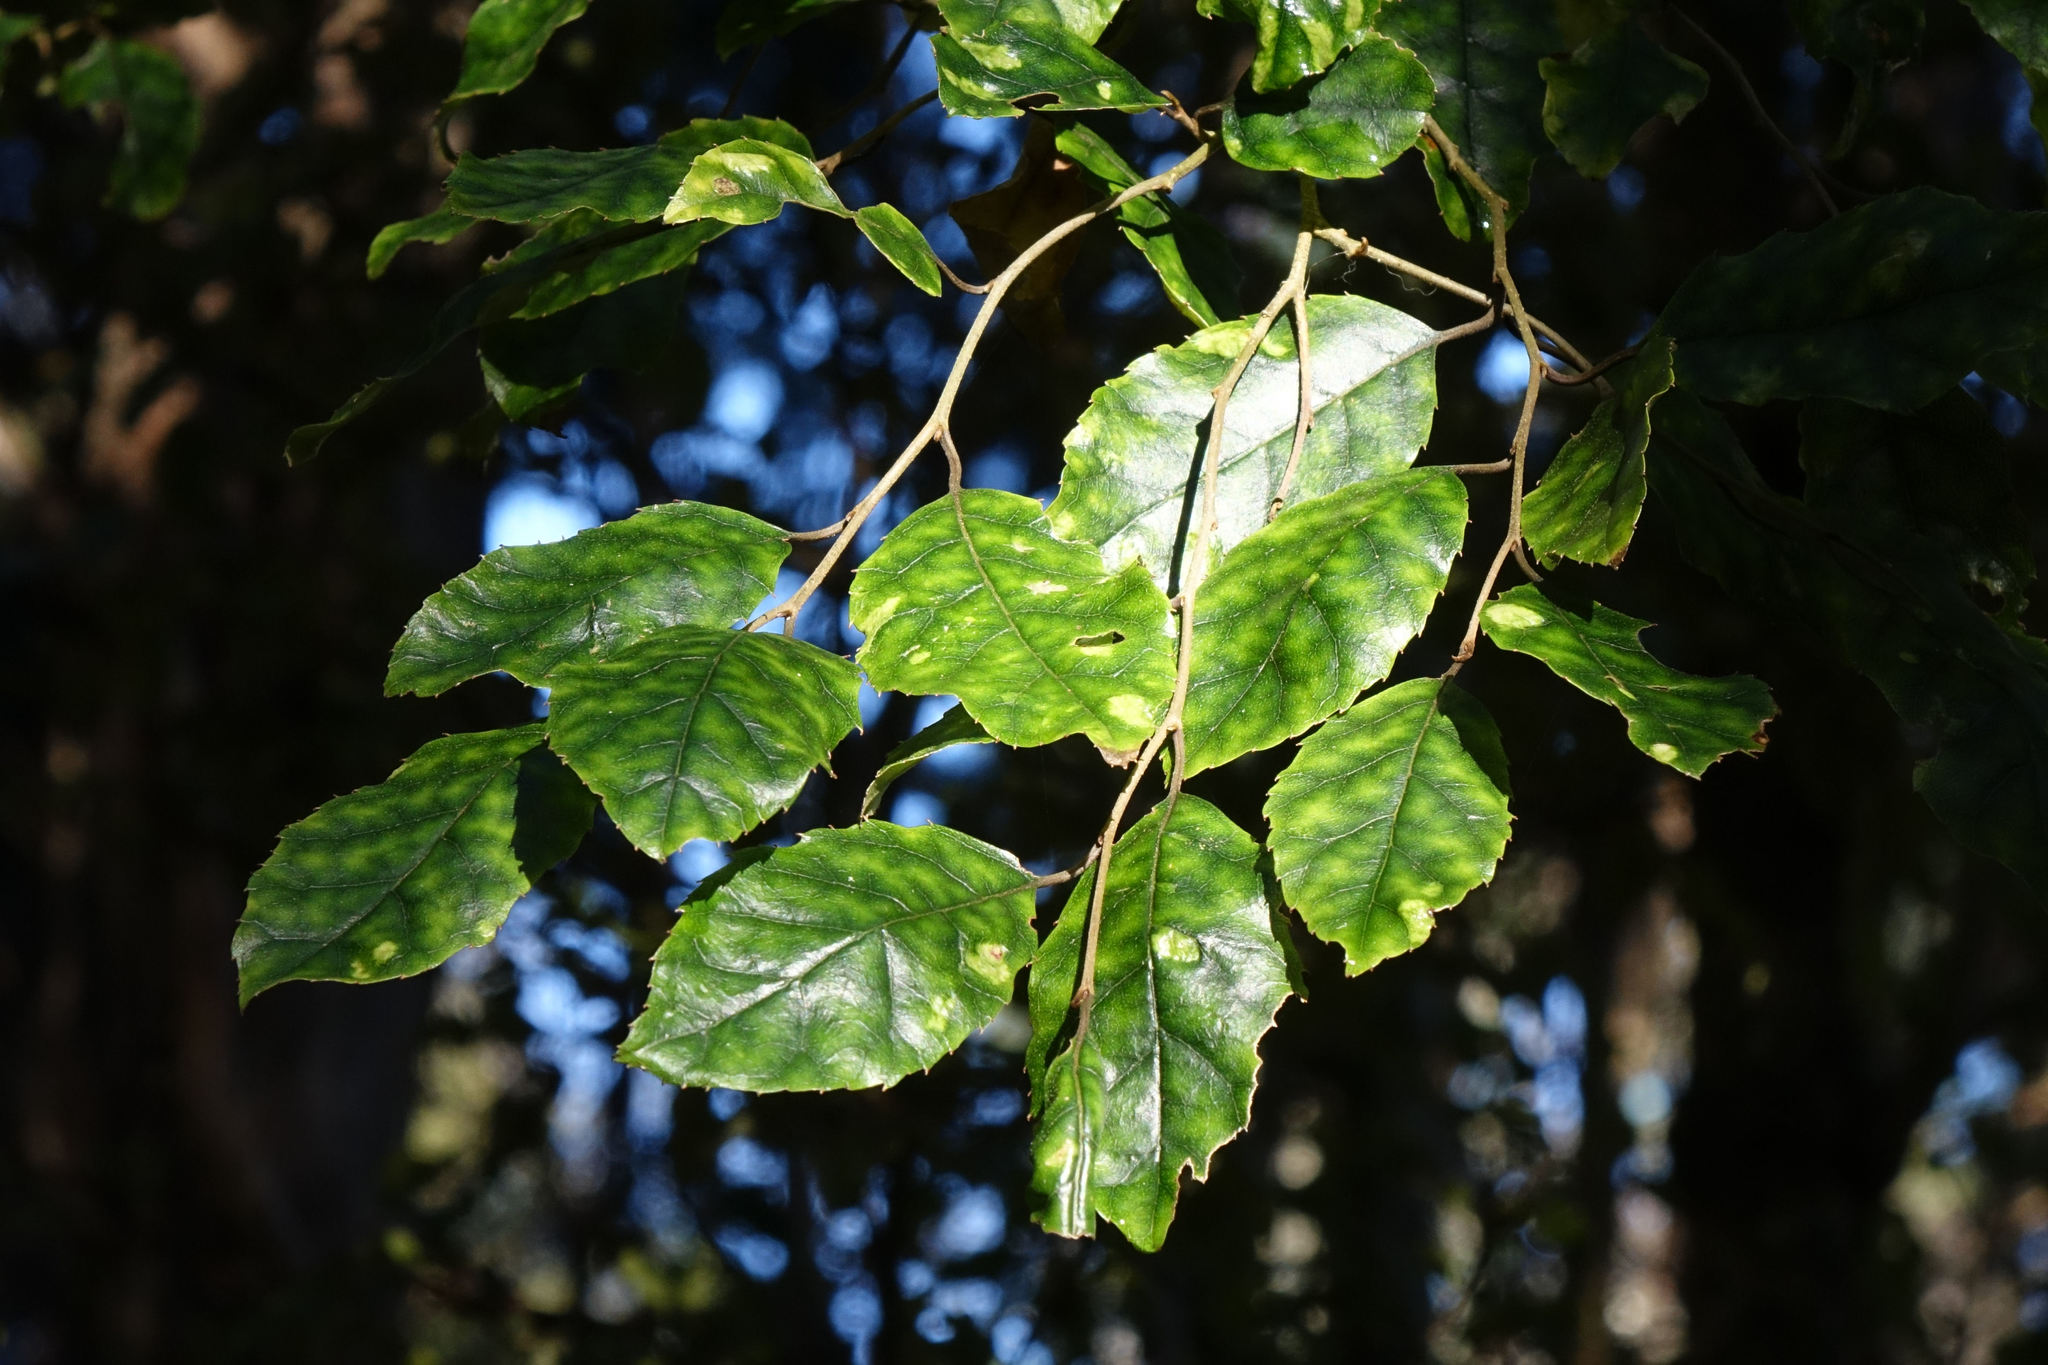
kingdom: Plantae
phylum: Tracheophyta
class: Magnoliopsida
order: Asterales
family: Rousseaceae
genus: Carpodetus
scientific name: Carpodetus serratus
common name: White mapau
